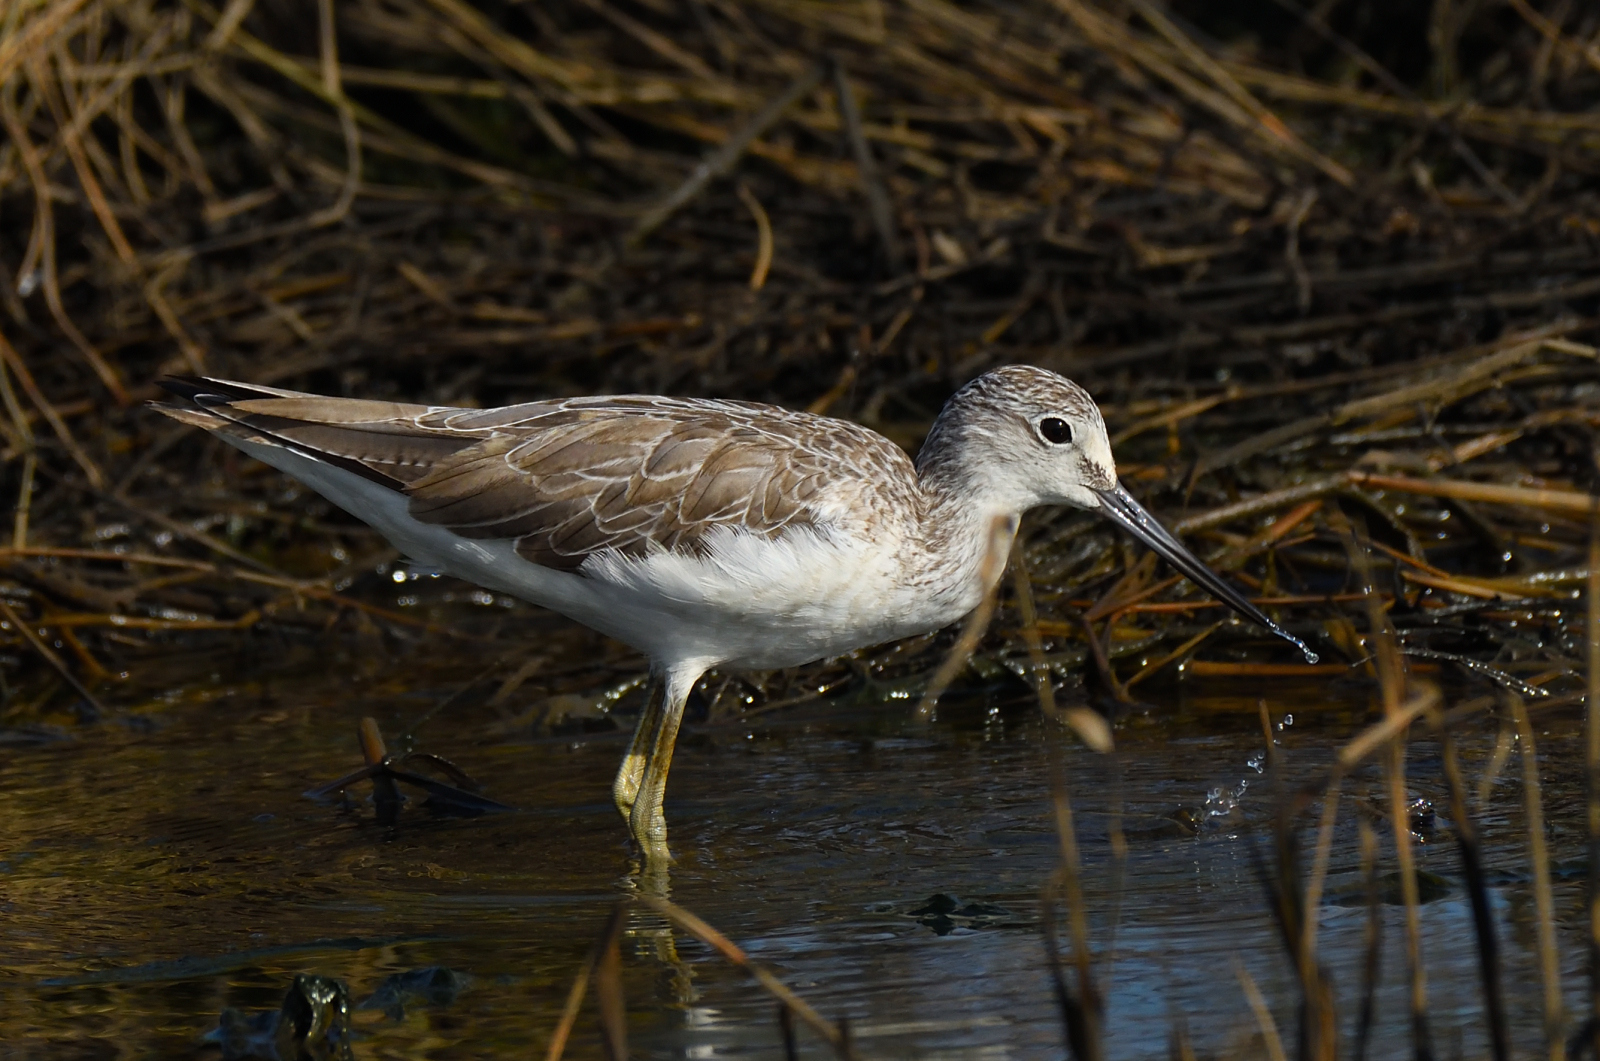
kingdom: Animalia
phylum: Chordata
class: Aves
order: Charadriiformes
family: Scolopacidae
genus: Tringa
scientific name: Tringa nebularia
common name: Common greenshank
